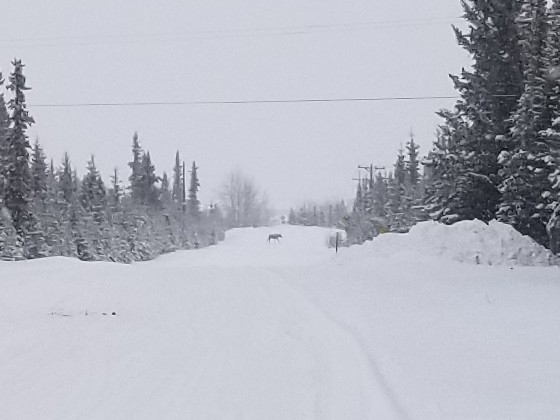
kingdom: Animalia
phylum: Chordata
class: Mammalia
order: Artiodactyla
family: Cervidae
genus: Alces
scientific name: Alces alces
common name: Moose
